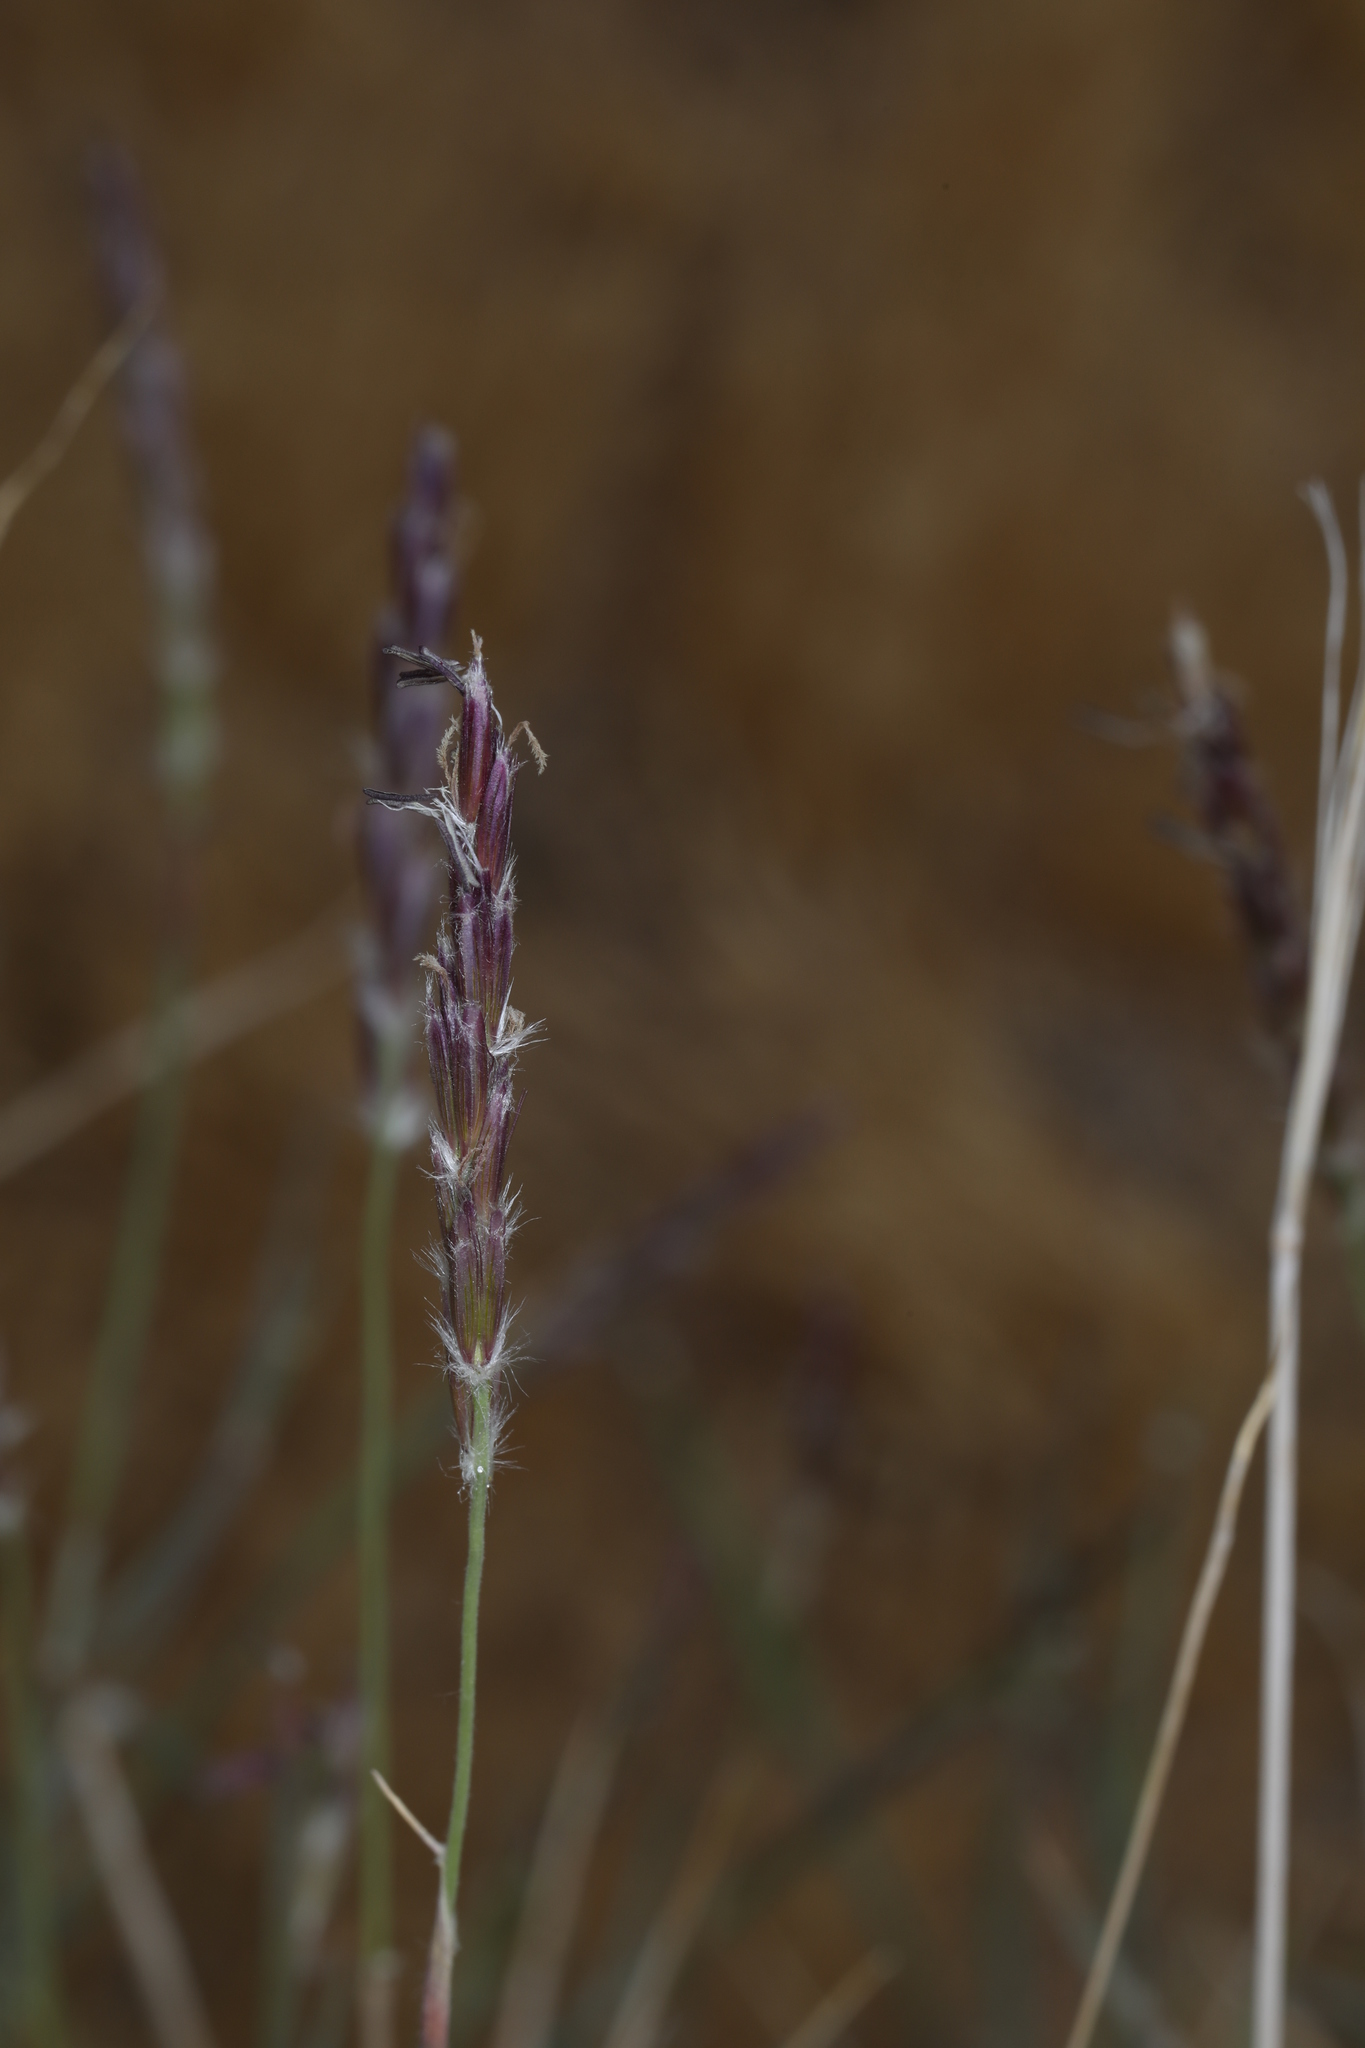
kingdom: Plantae
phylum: Tracheophyta
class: Liliopsida
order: Poales
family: Poaceae
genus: Hilaria
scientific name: Hilaria rigida
